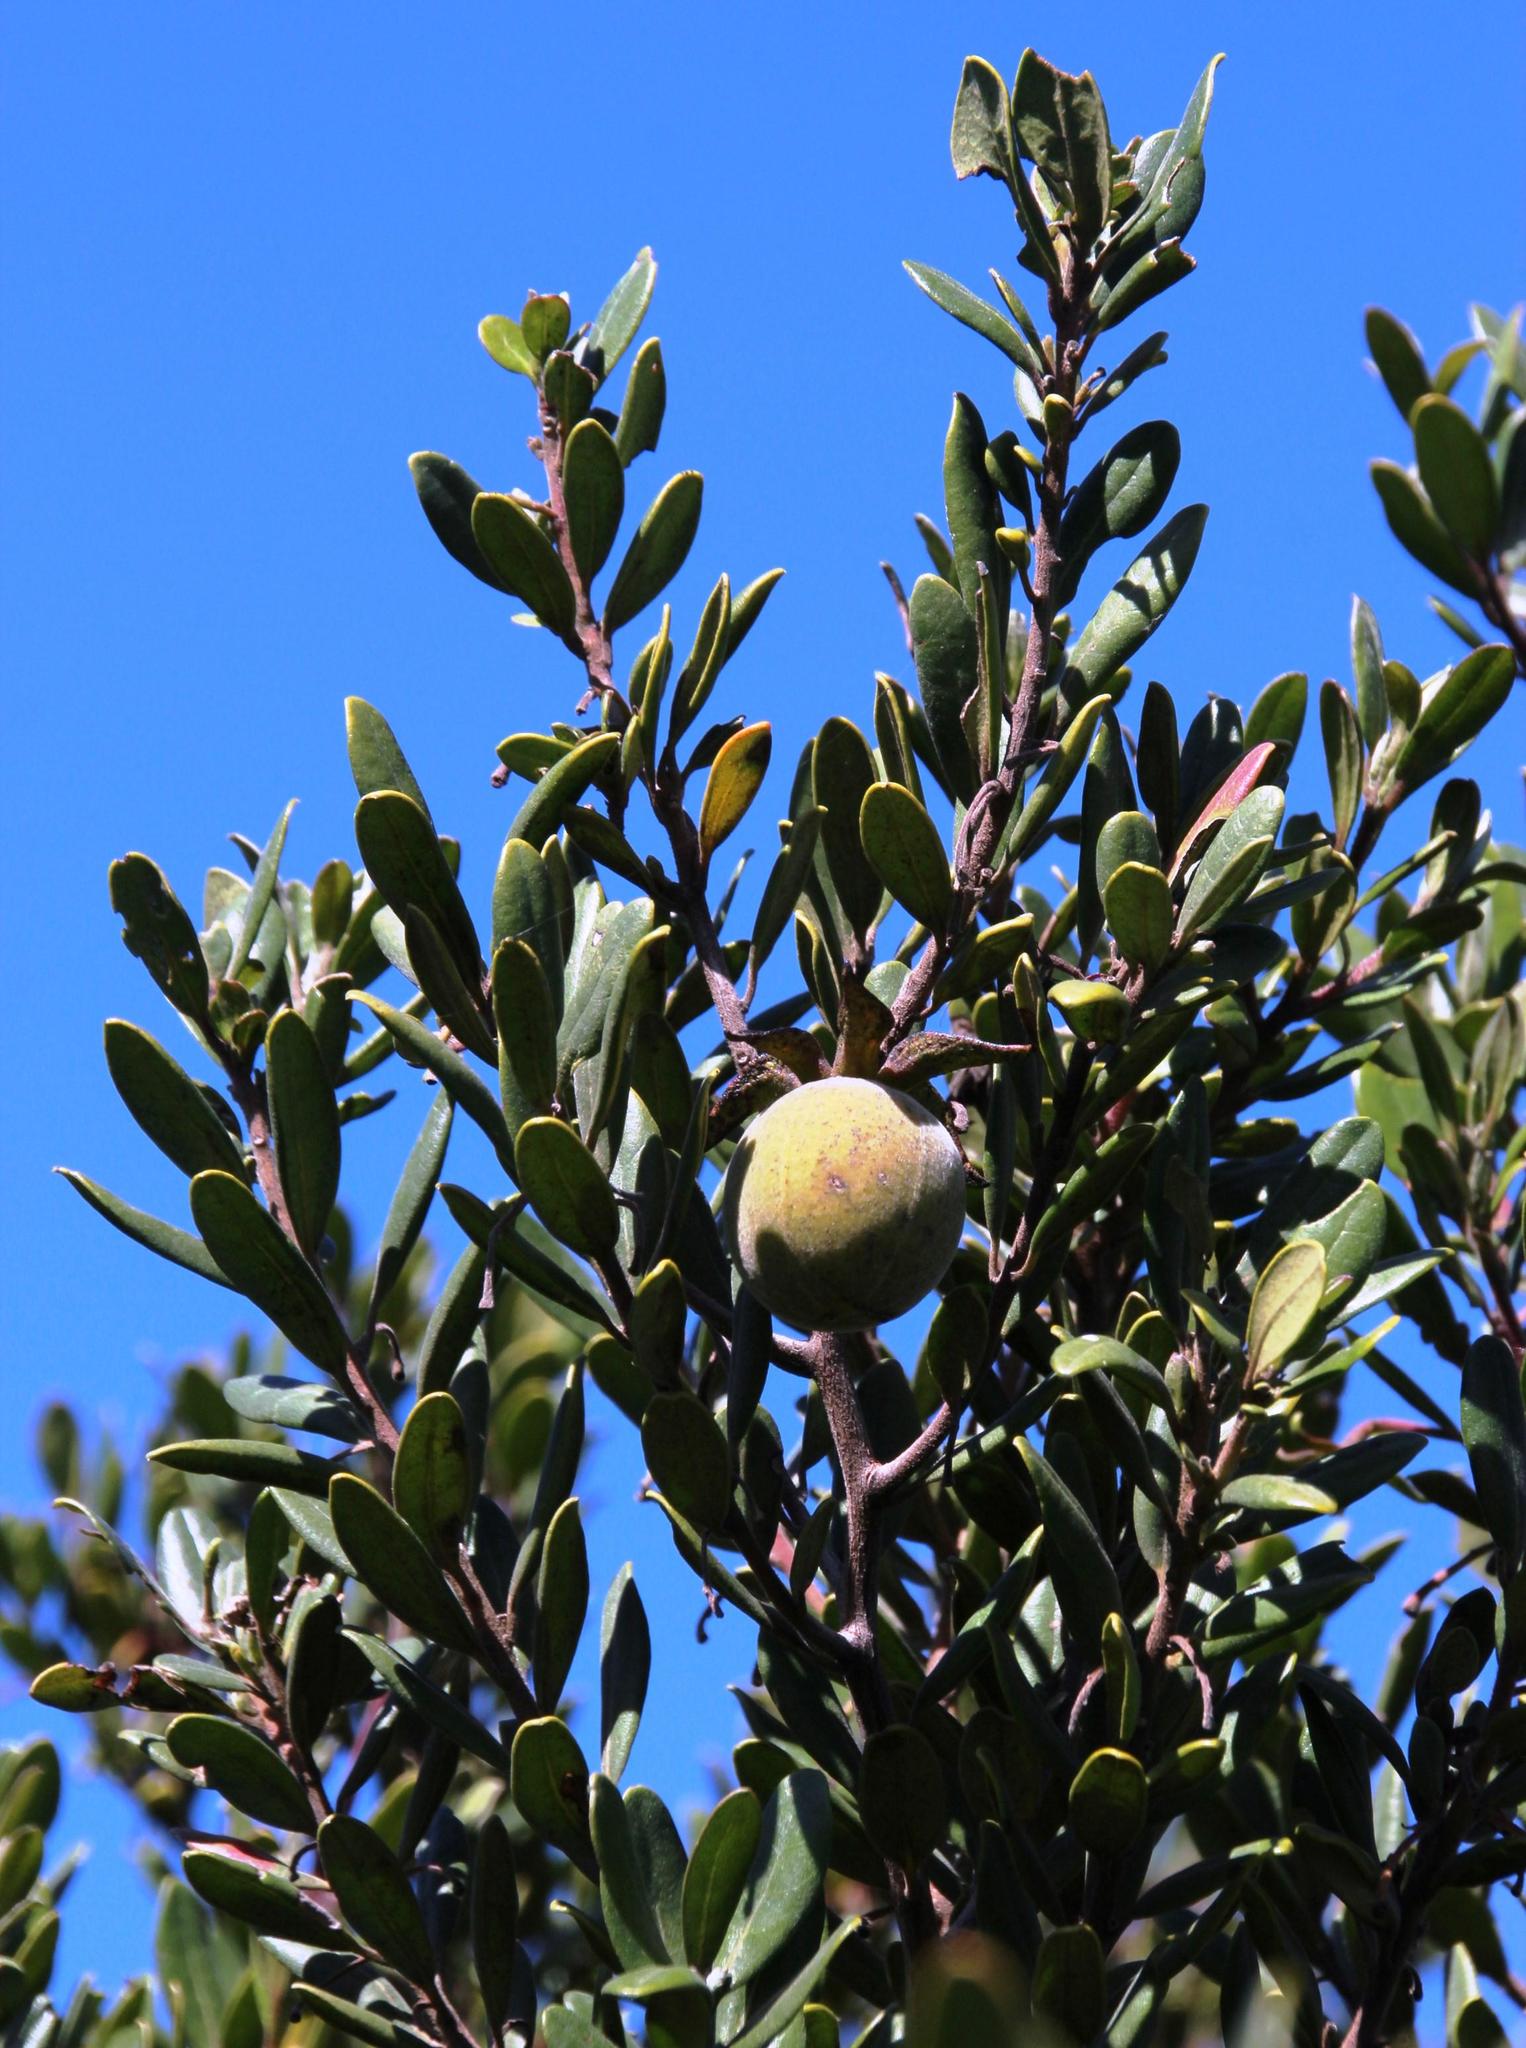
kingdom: Plantae
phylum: Tracheophyta
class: Magnoliopsida
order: Ericales
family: Ebenaceae
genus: Diospyros
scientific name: Diospyros dichrophylla
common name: Common star-apple
